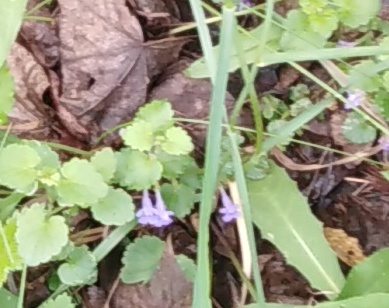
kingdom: Plantae
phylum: Tracheophyta
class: Magnoliopsida
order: Lamiales
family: Lamiaceae
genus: Glechoma
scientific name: Glechoma hederacea
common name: Ground ivy
